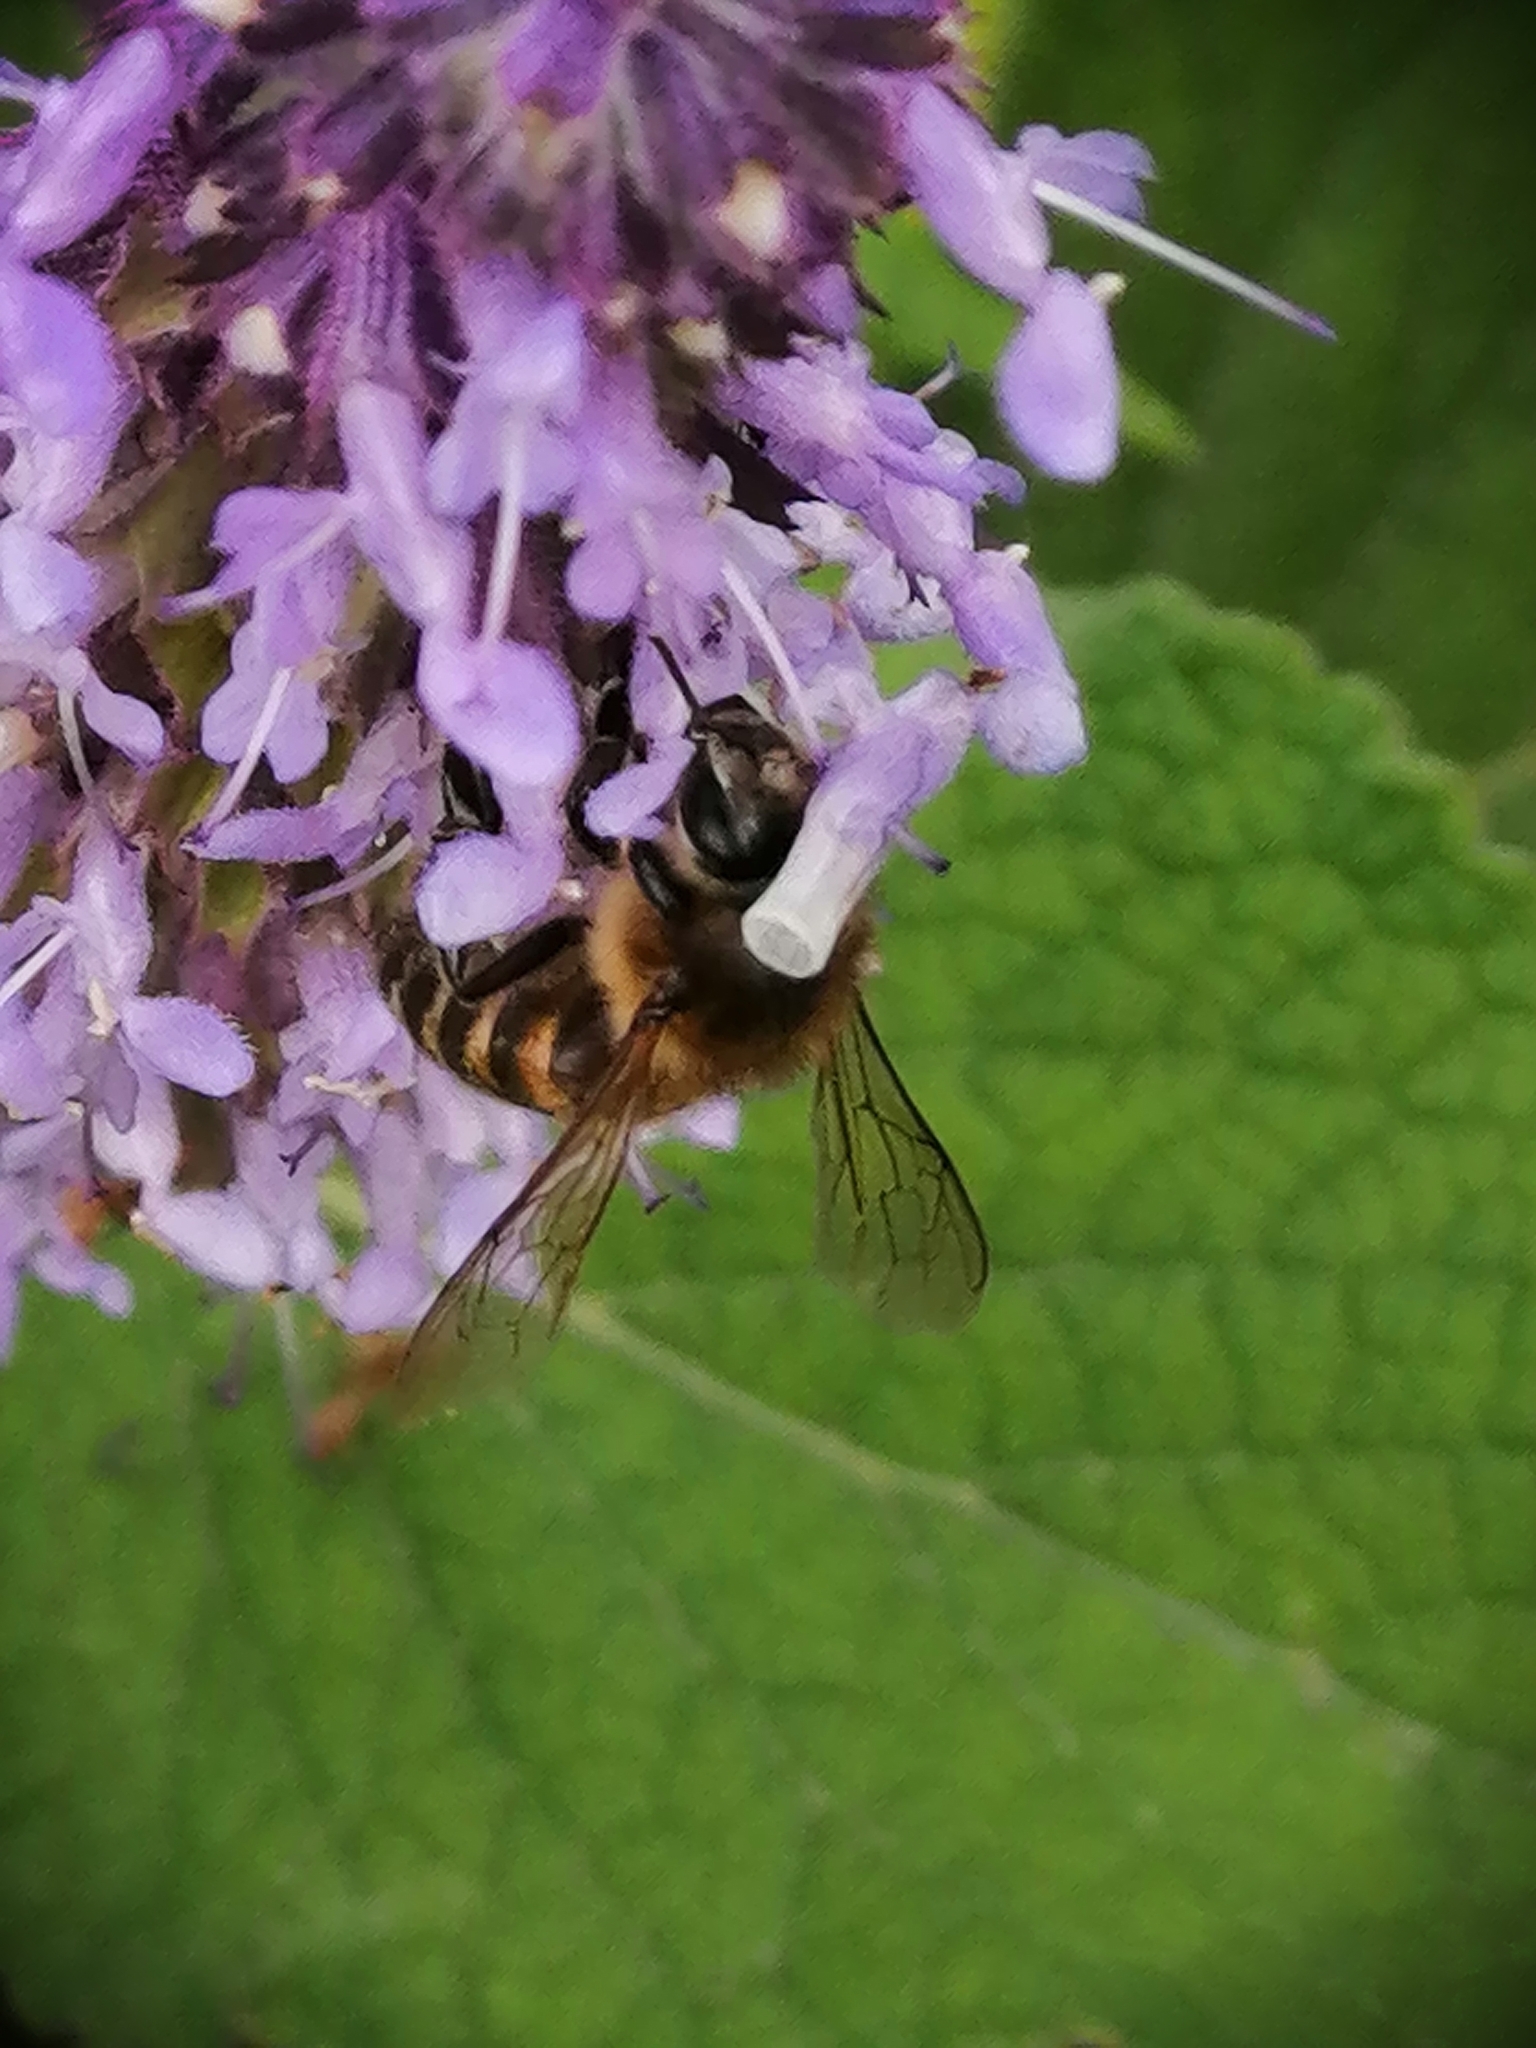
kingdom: Animalia
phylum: Arthropoda
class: Insecta
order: Hymenoptera
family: Apidae
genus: Apis
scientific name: Apis mellifera
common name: Honey bee
